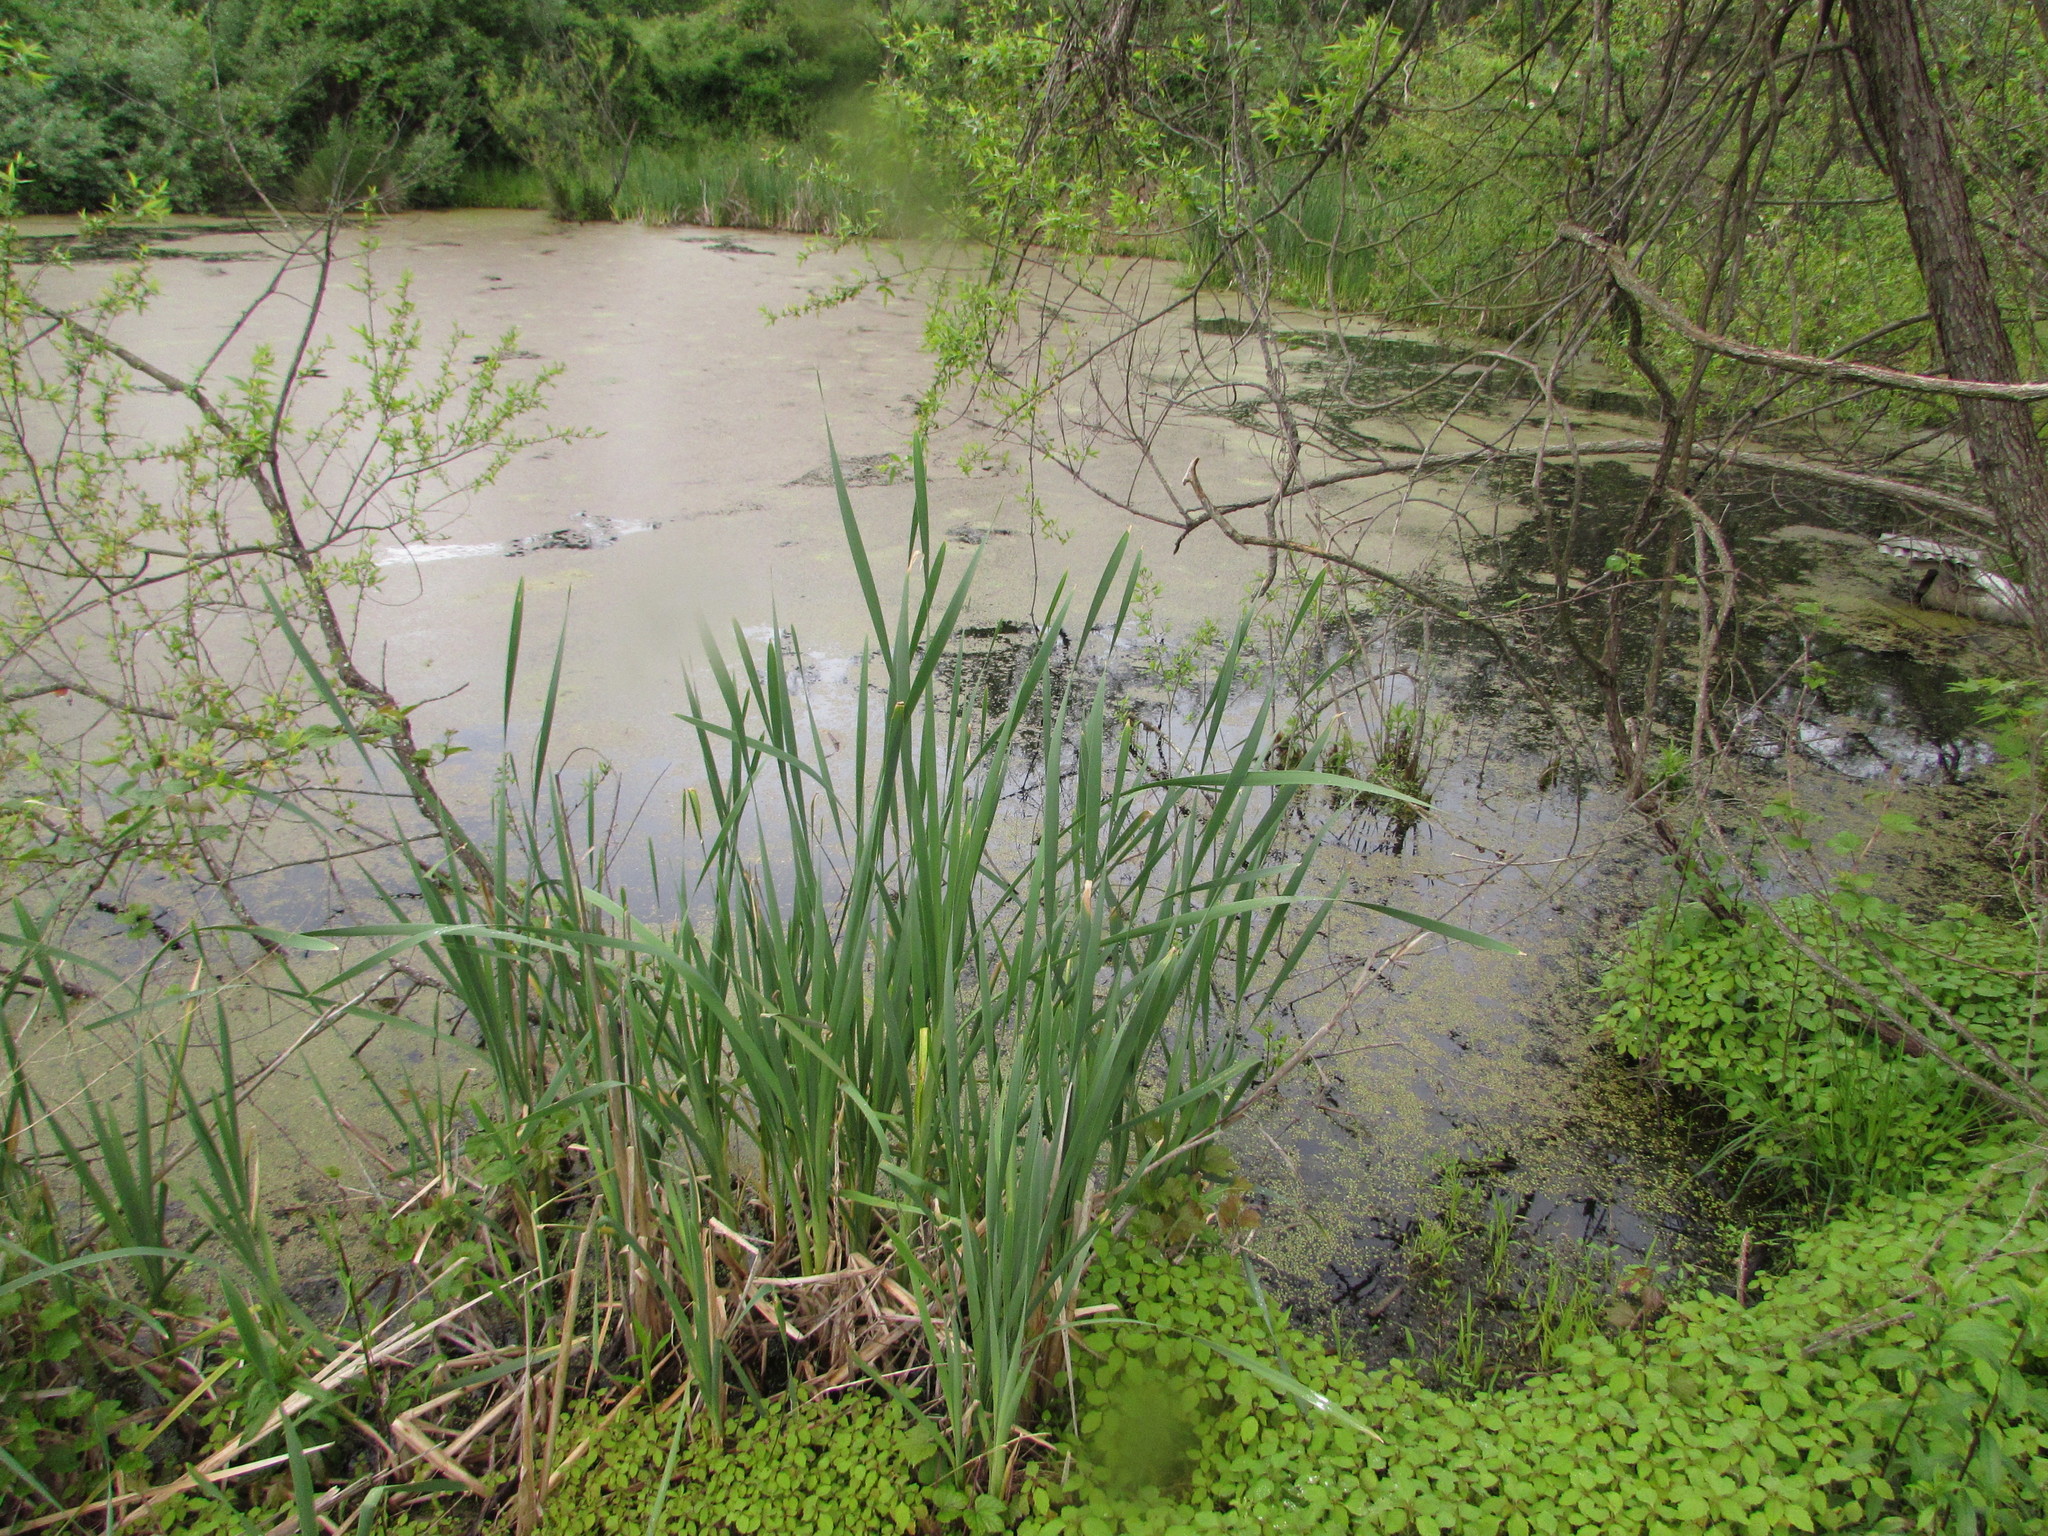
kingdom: Plantae
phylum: Tracheophyta
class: Liliopsida
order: Poales
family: Typhaceae
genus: Typha
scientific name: Typha latifolia
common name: Broadleaf cattail
